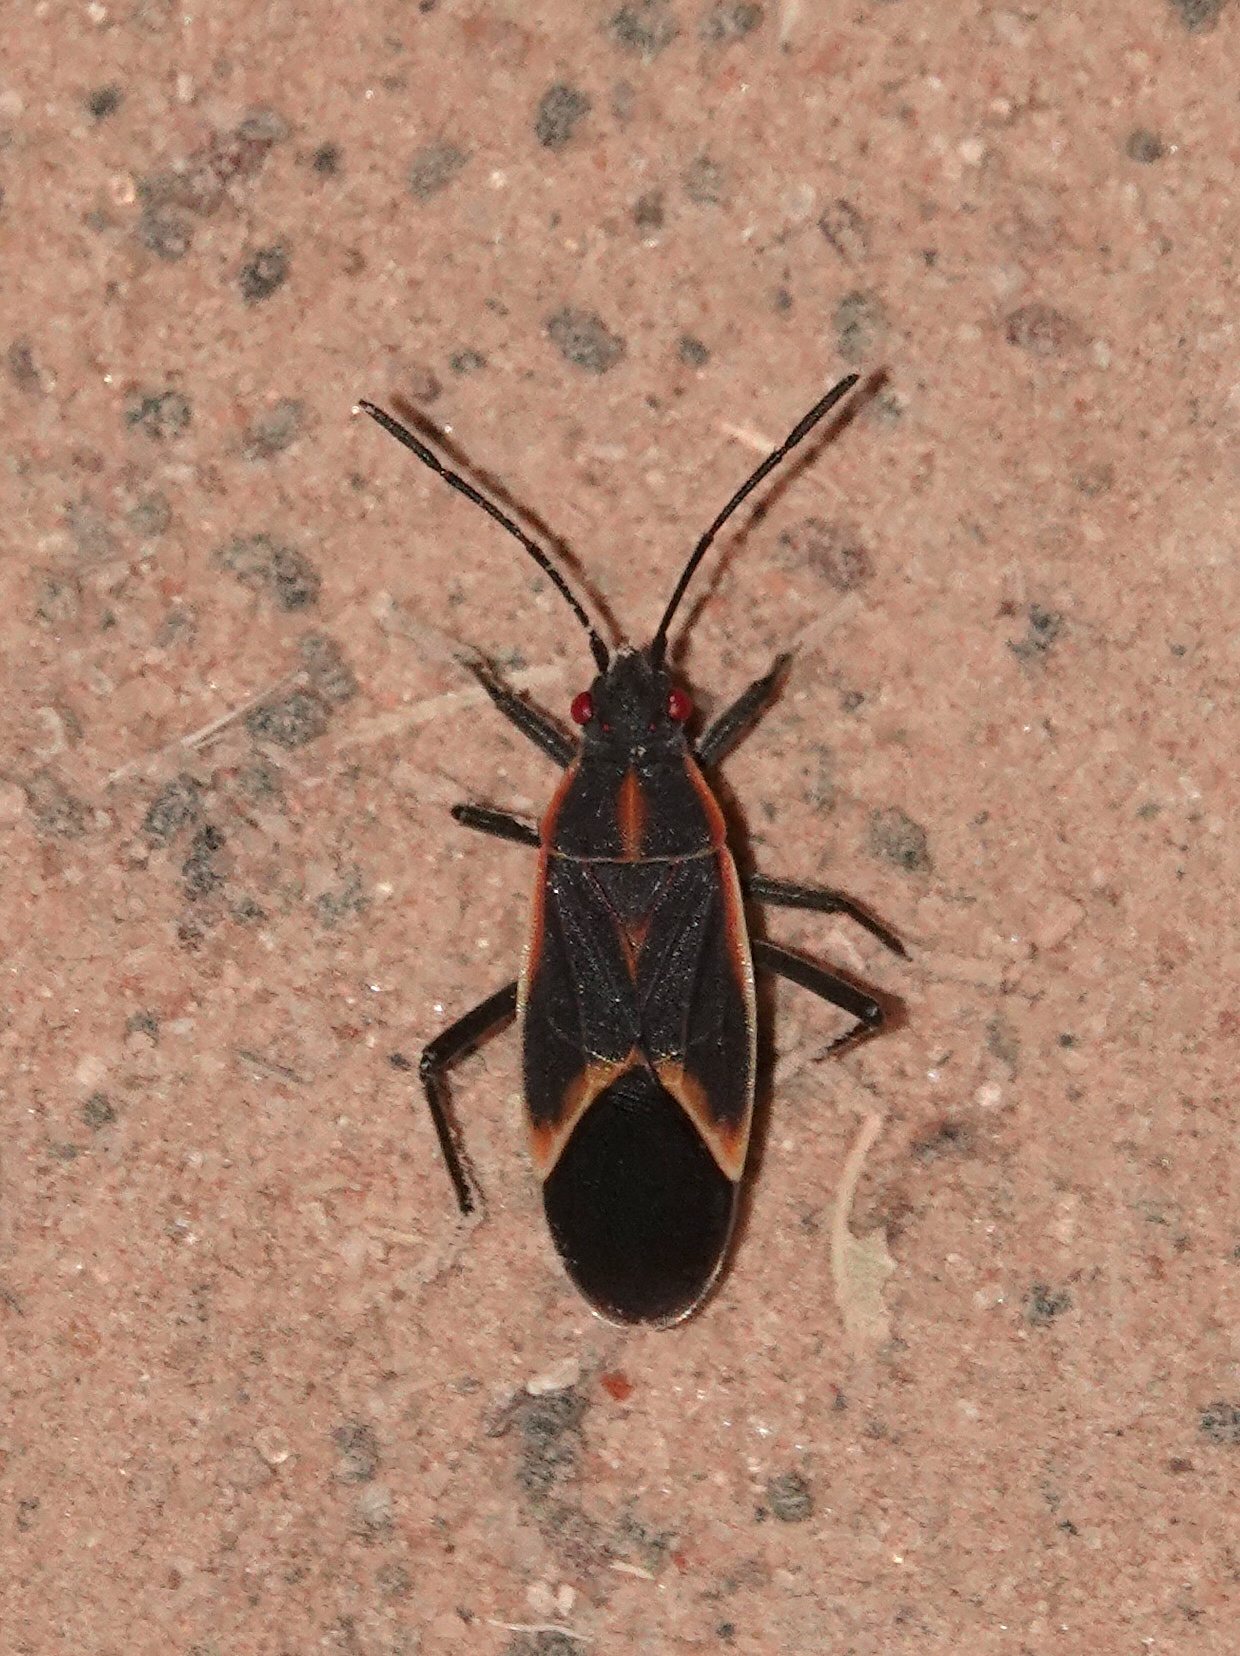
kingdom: Animalia
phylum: Arthropoda
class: Insecta
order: Hemiptera
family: Rhopalidae
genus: Boisea
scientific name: Boisea trivittata
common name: Boxelder bug
